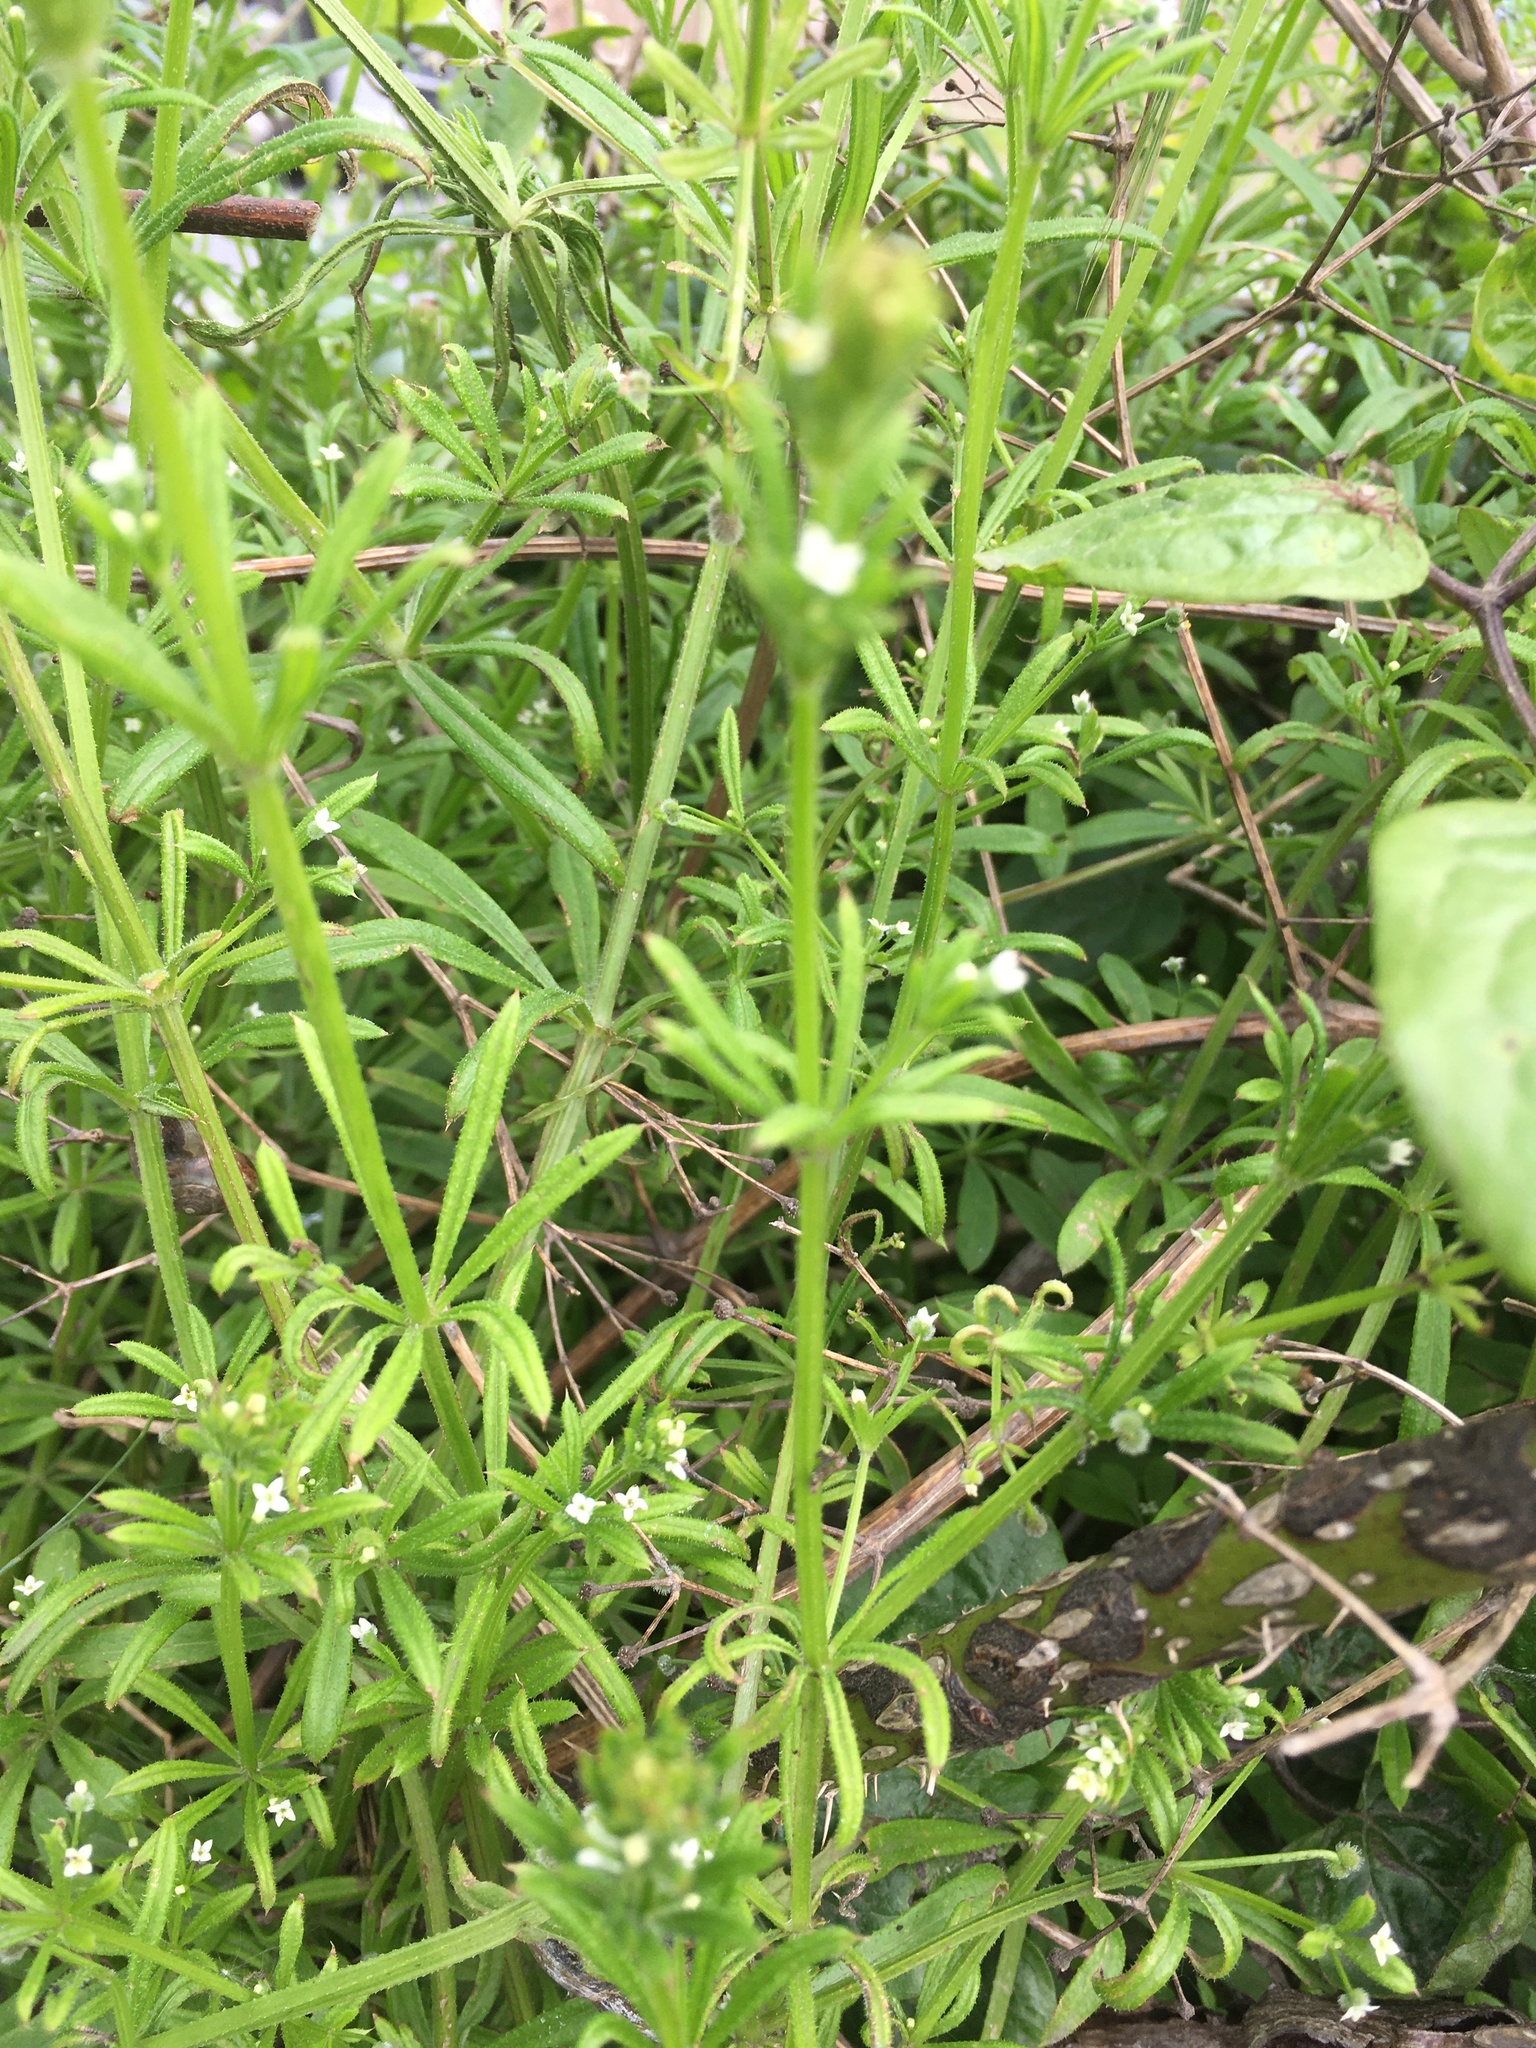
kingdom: Plantae
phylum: Tracheophyta
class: Magnoliopsida
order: Gentianales
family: Rubiaceae
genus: Galium
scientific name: Galium aparine
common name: Cleavers
